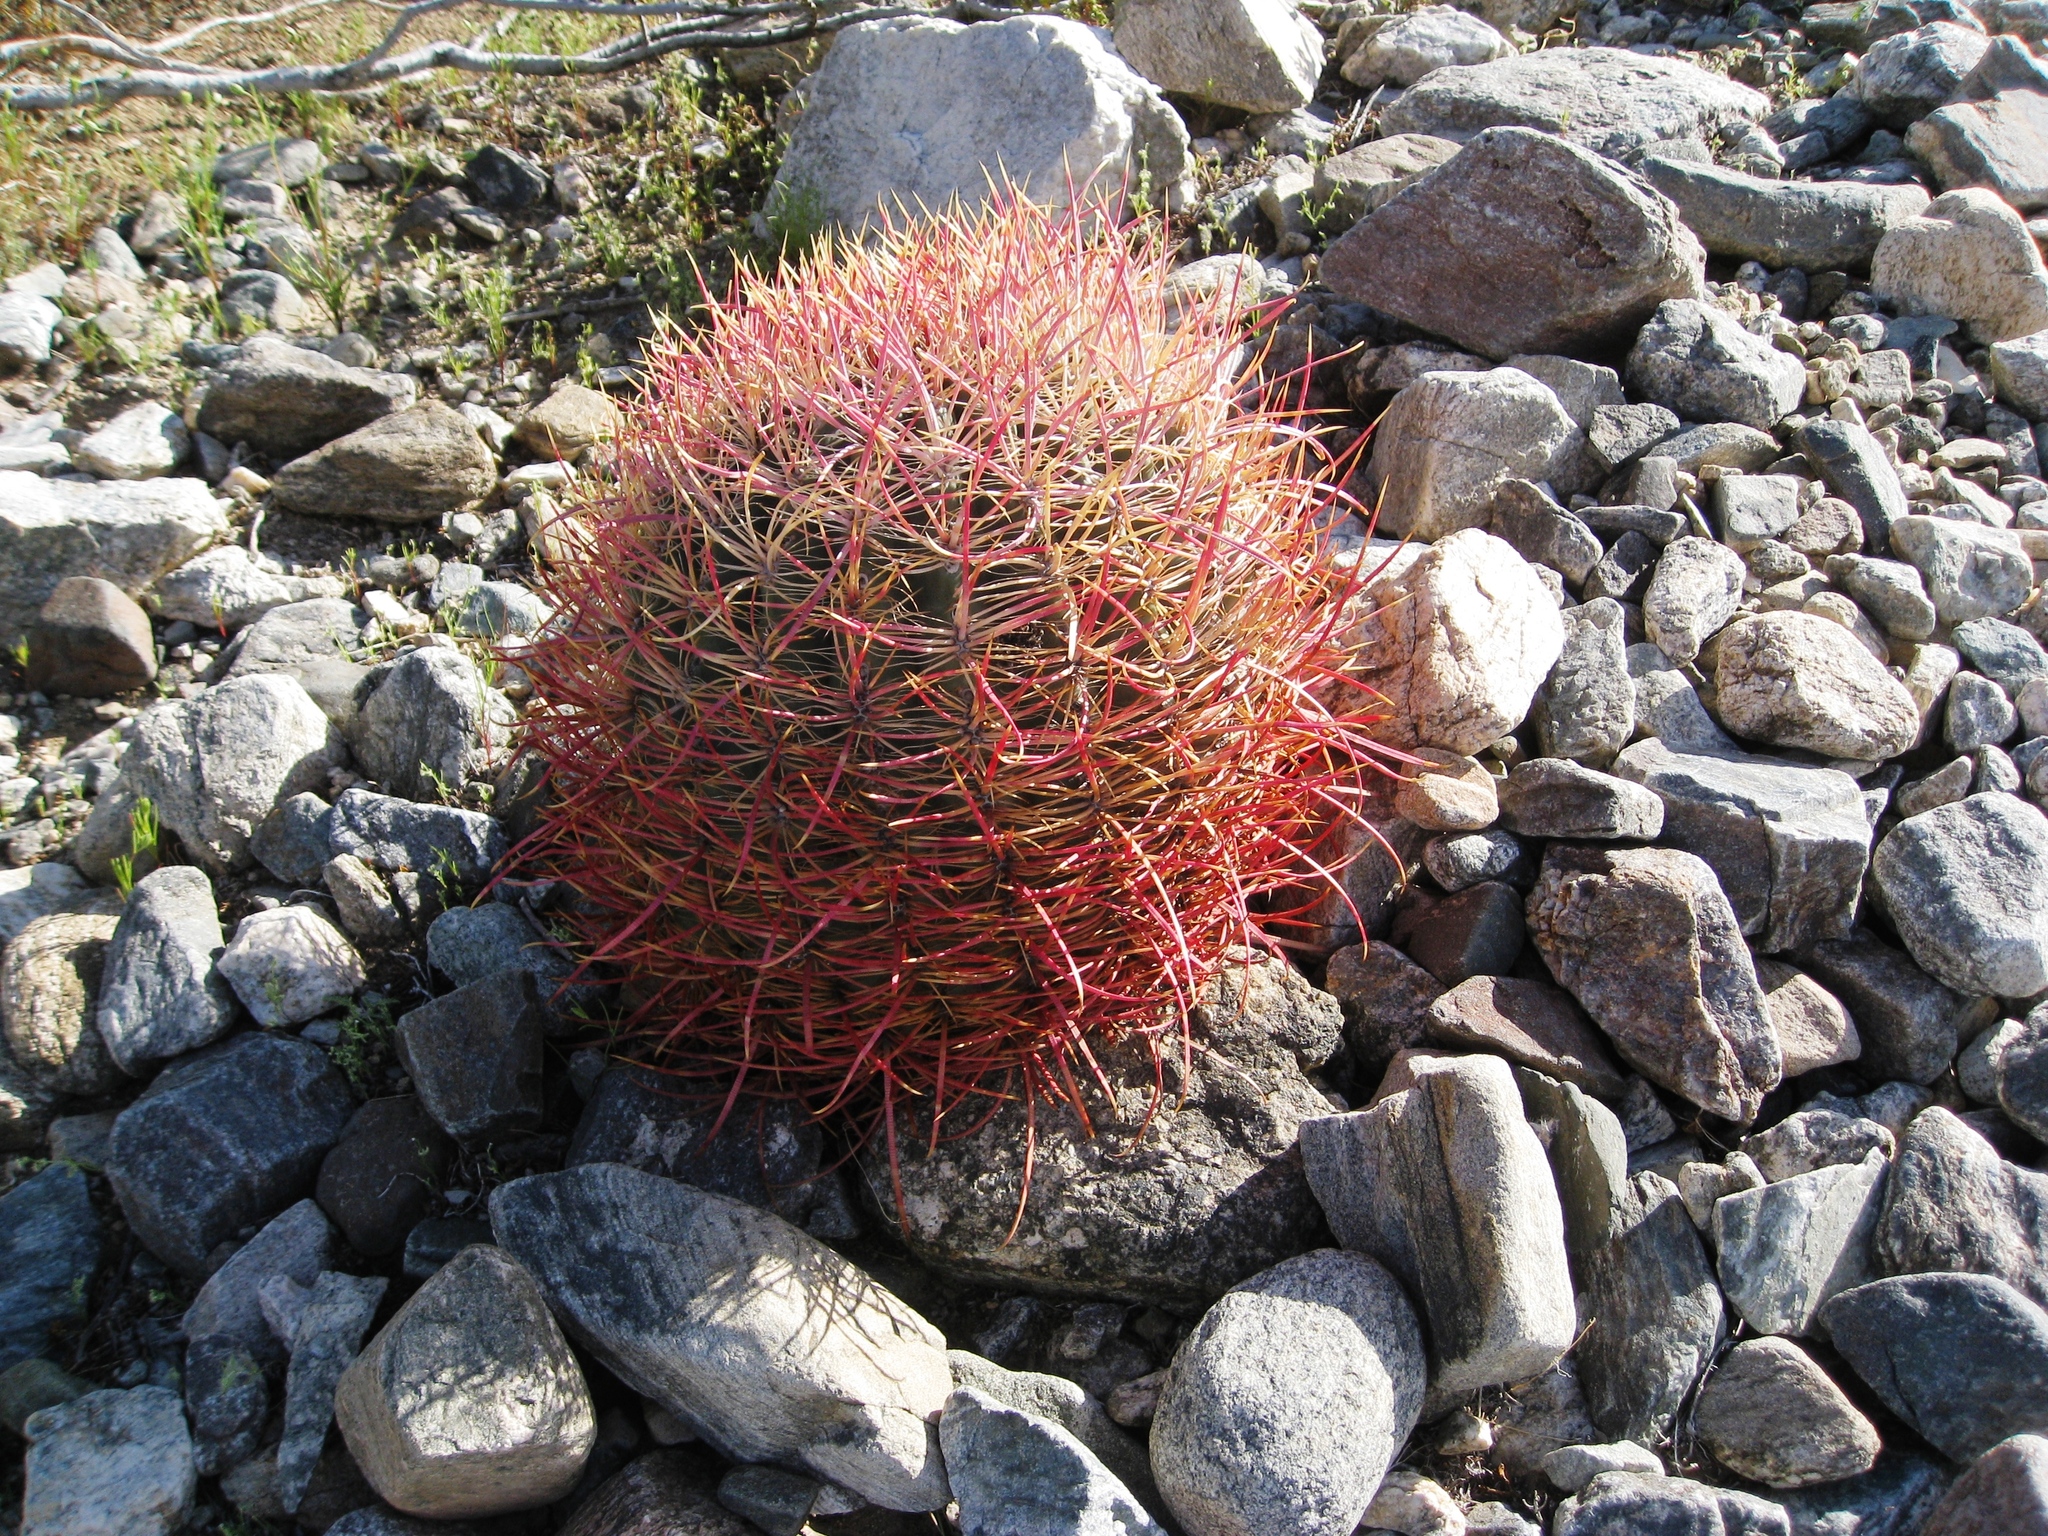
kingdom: Plantae
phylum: Tracheophyta
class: Magnoliopsida
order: Caryophyllales
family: Cactaceae
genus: Ferocactus
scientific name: Ferocactus cylindraceus
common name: California barrel cactus
